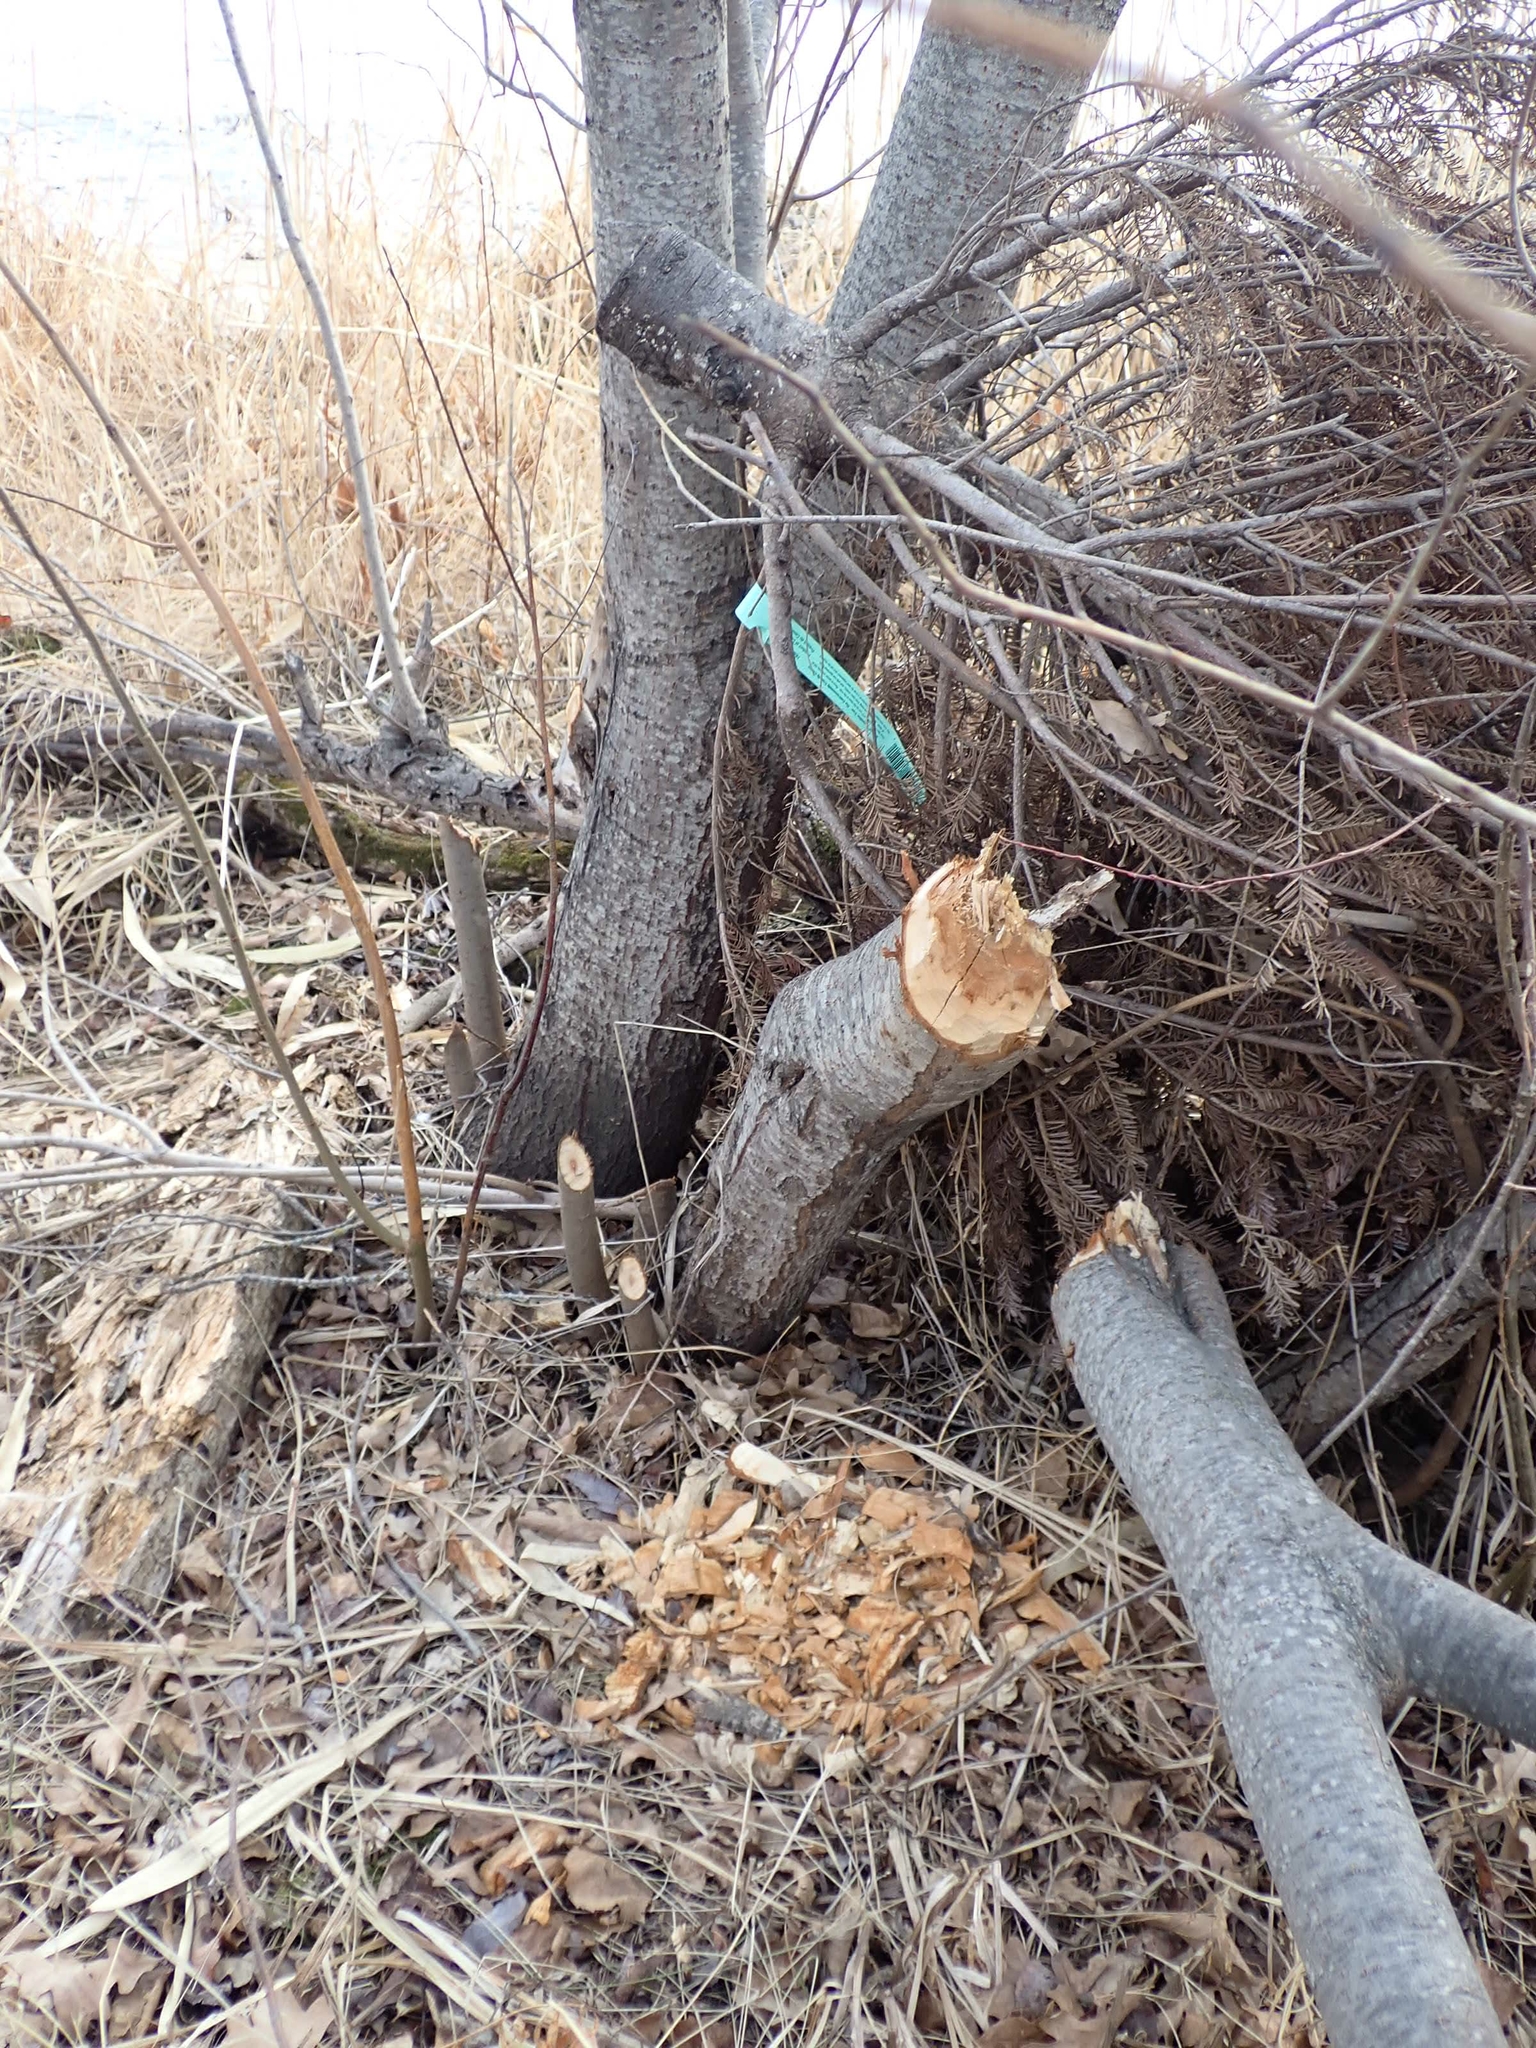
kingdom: Animalia
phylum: Chordata
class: Mammalia
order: Rodentia
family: Castoridae
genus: Castor
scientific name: Castor canadensis
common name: American beaver
